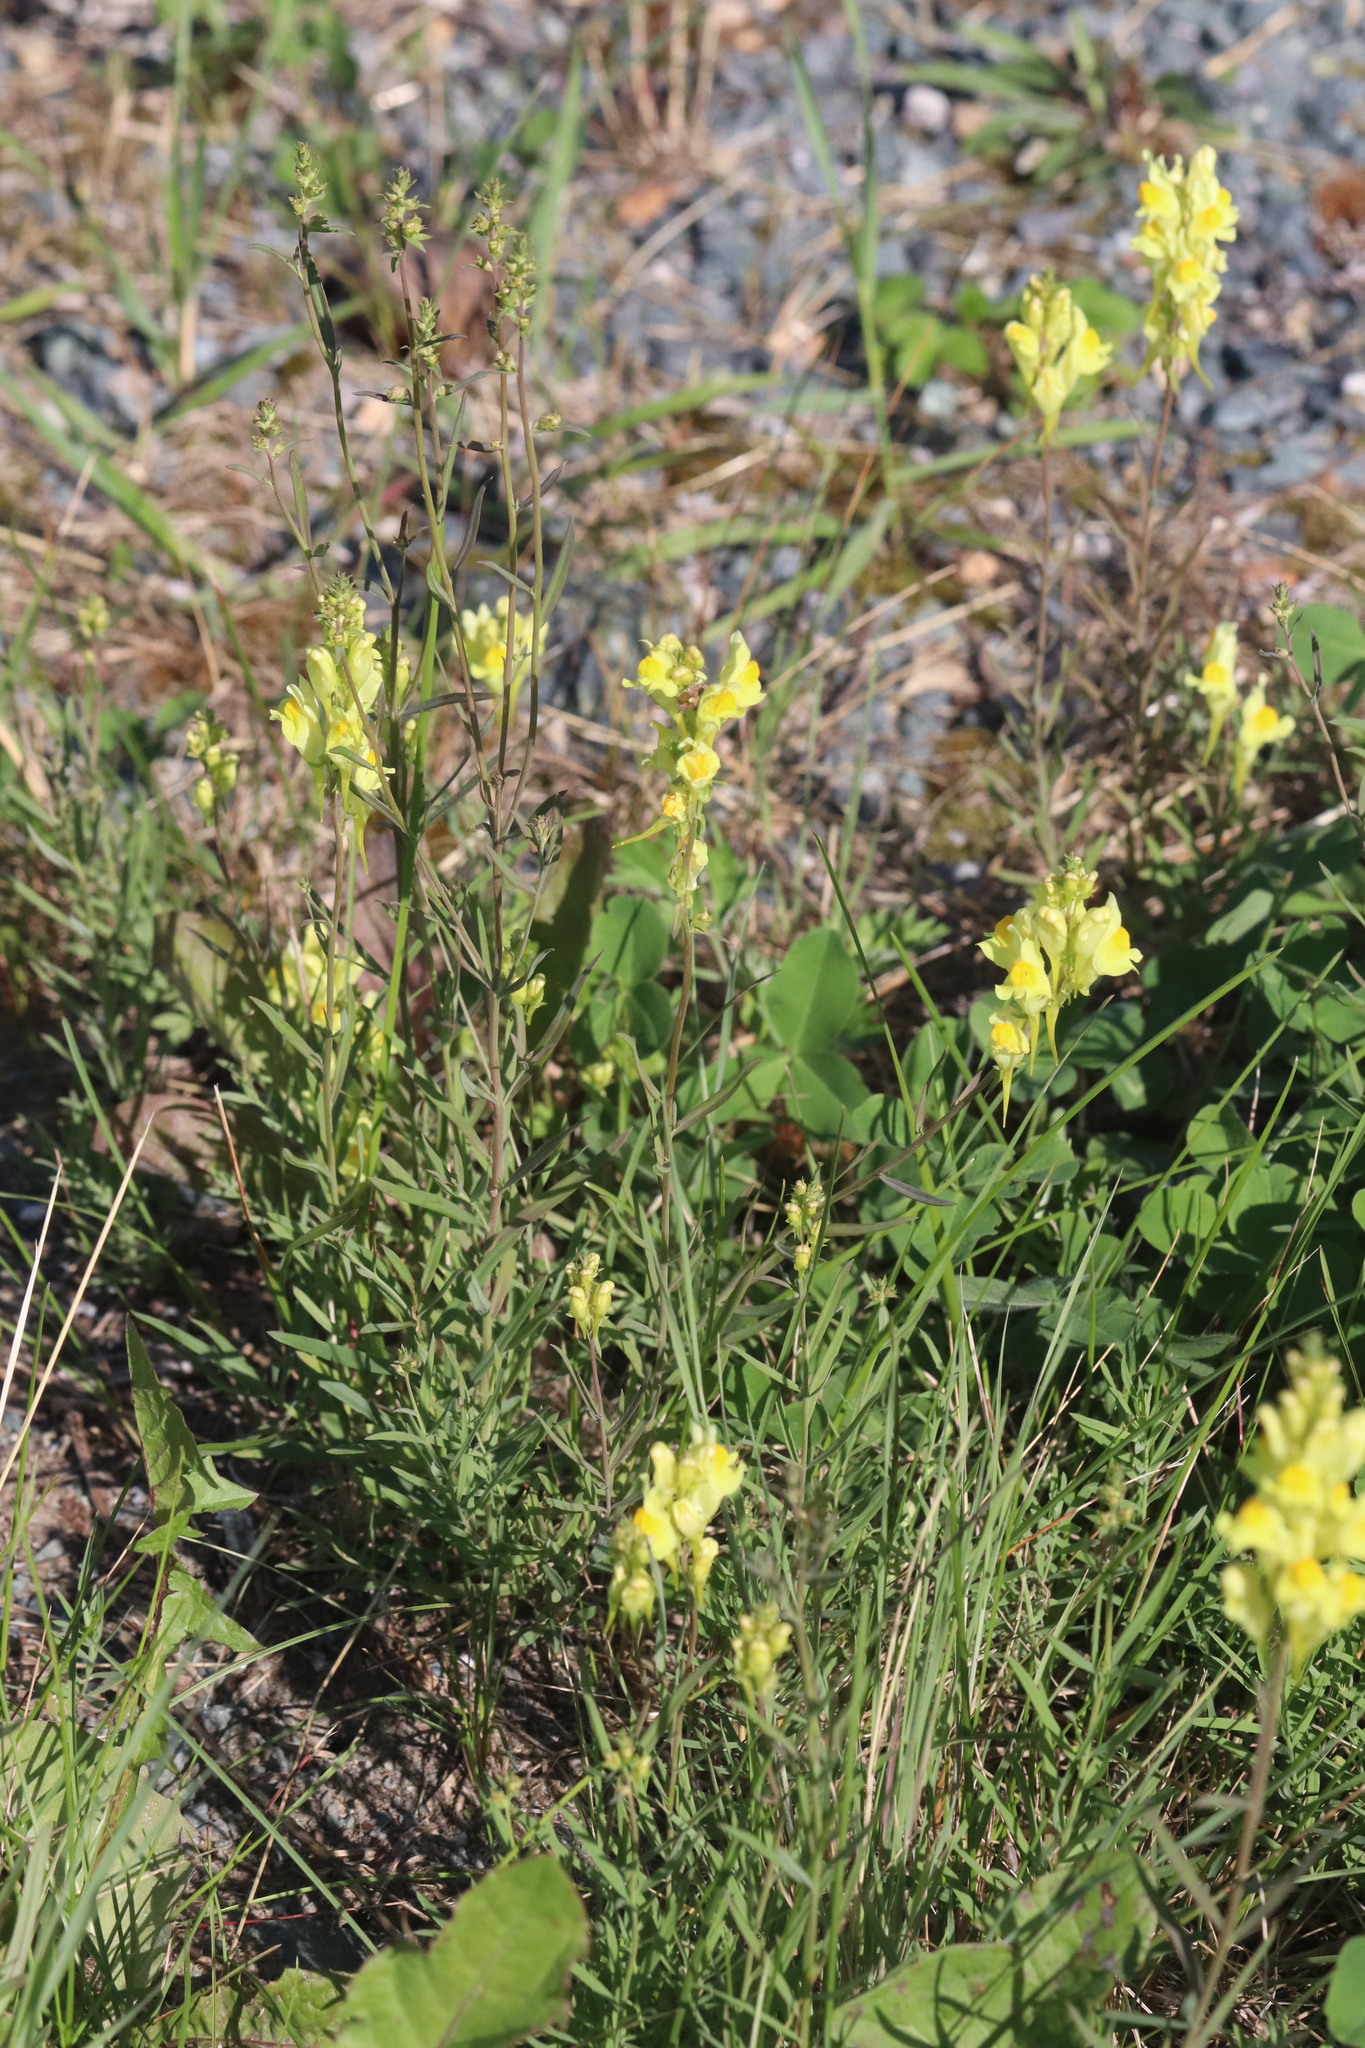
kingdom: Plantae
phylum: Tracheophyta
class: Magnoliopsida
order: Lamiales
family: Plantaginaceae
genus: Linaria
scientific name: Linaria vulgaris
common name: Butter and eggs
